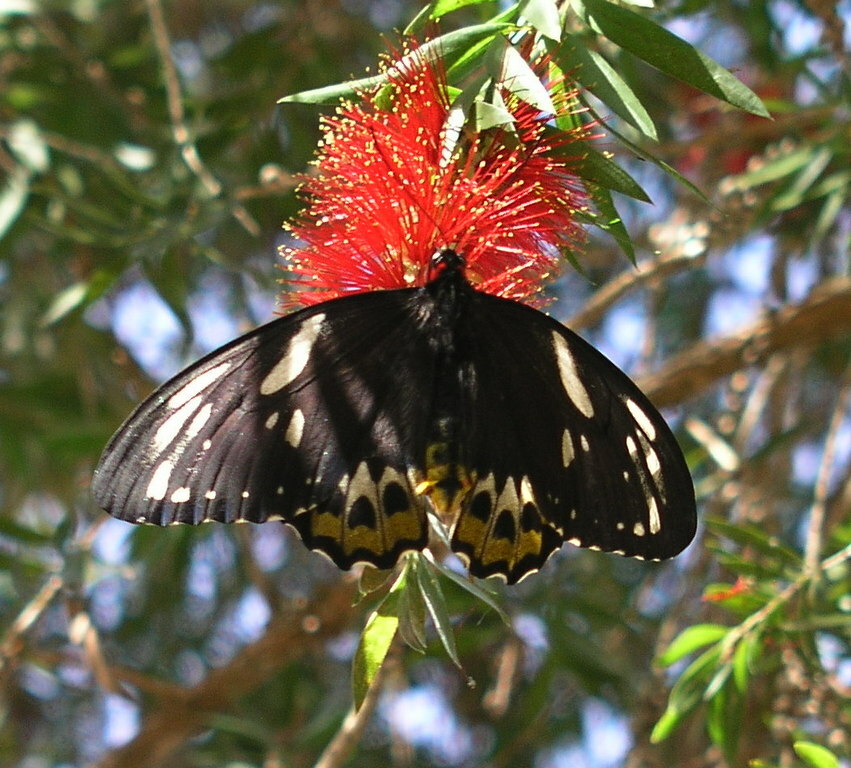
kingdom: Animalia
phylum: Arthropoda
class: Insecta
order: Lepidoptera
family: Papilionidae
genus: Ornithoptera
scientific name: Ornithoptera euphorion
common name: Cairns birdwing
